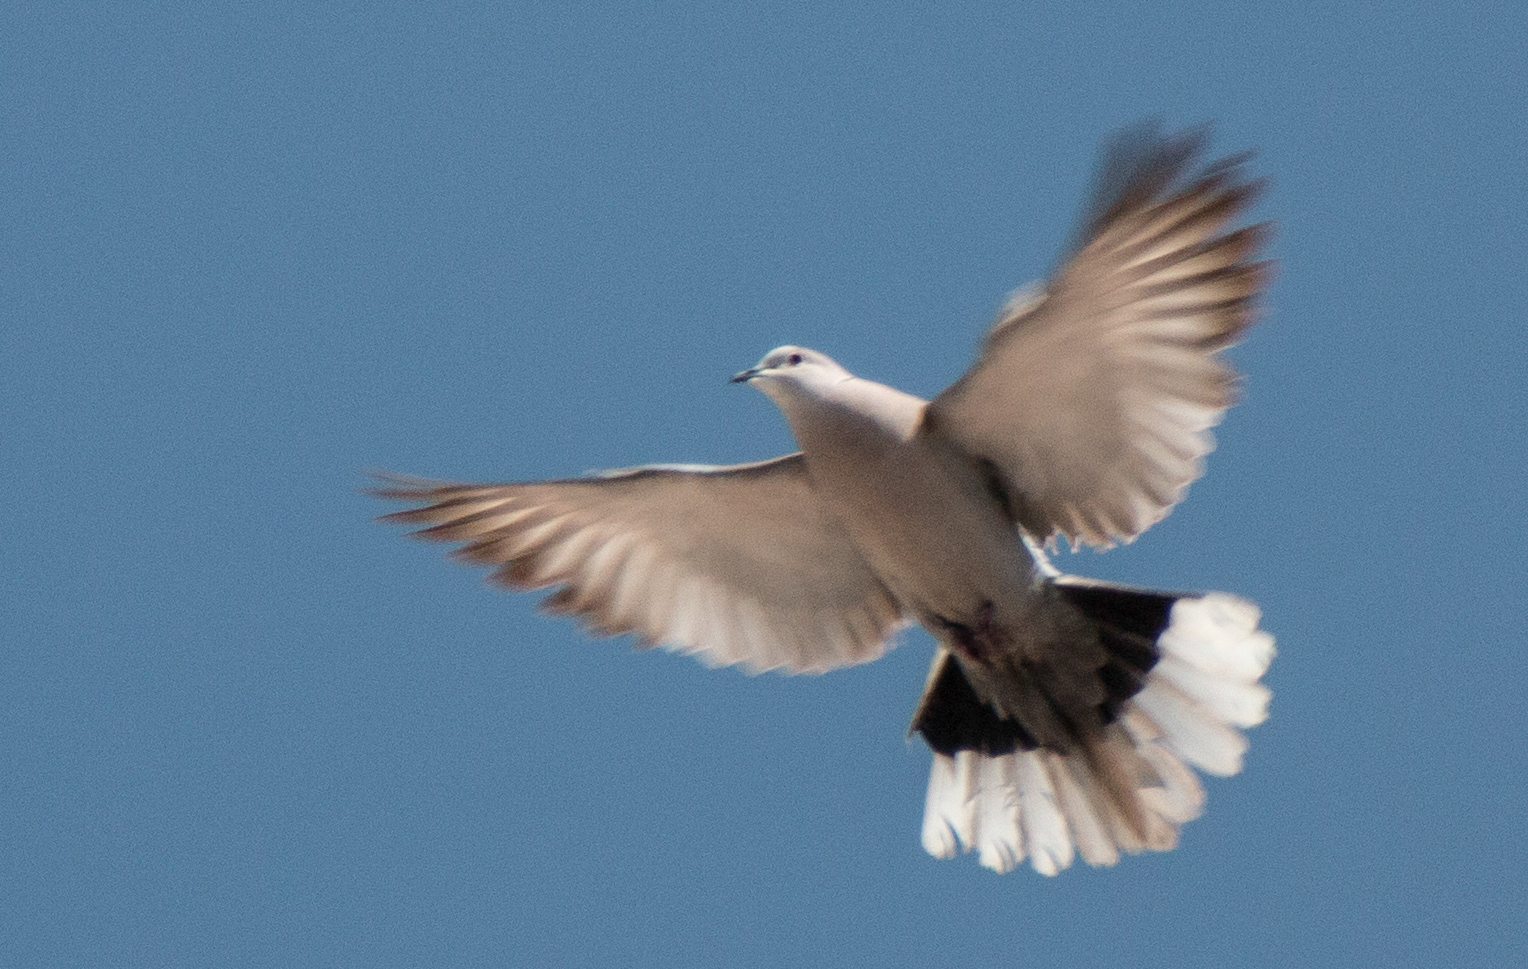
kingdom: Animalia
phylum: Chordata
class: Aves
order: Columbiformes
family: Columbidae
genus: Streptopelia
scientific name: Streptopelia decaocto
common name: Eurasian collared dove
